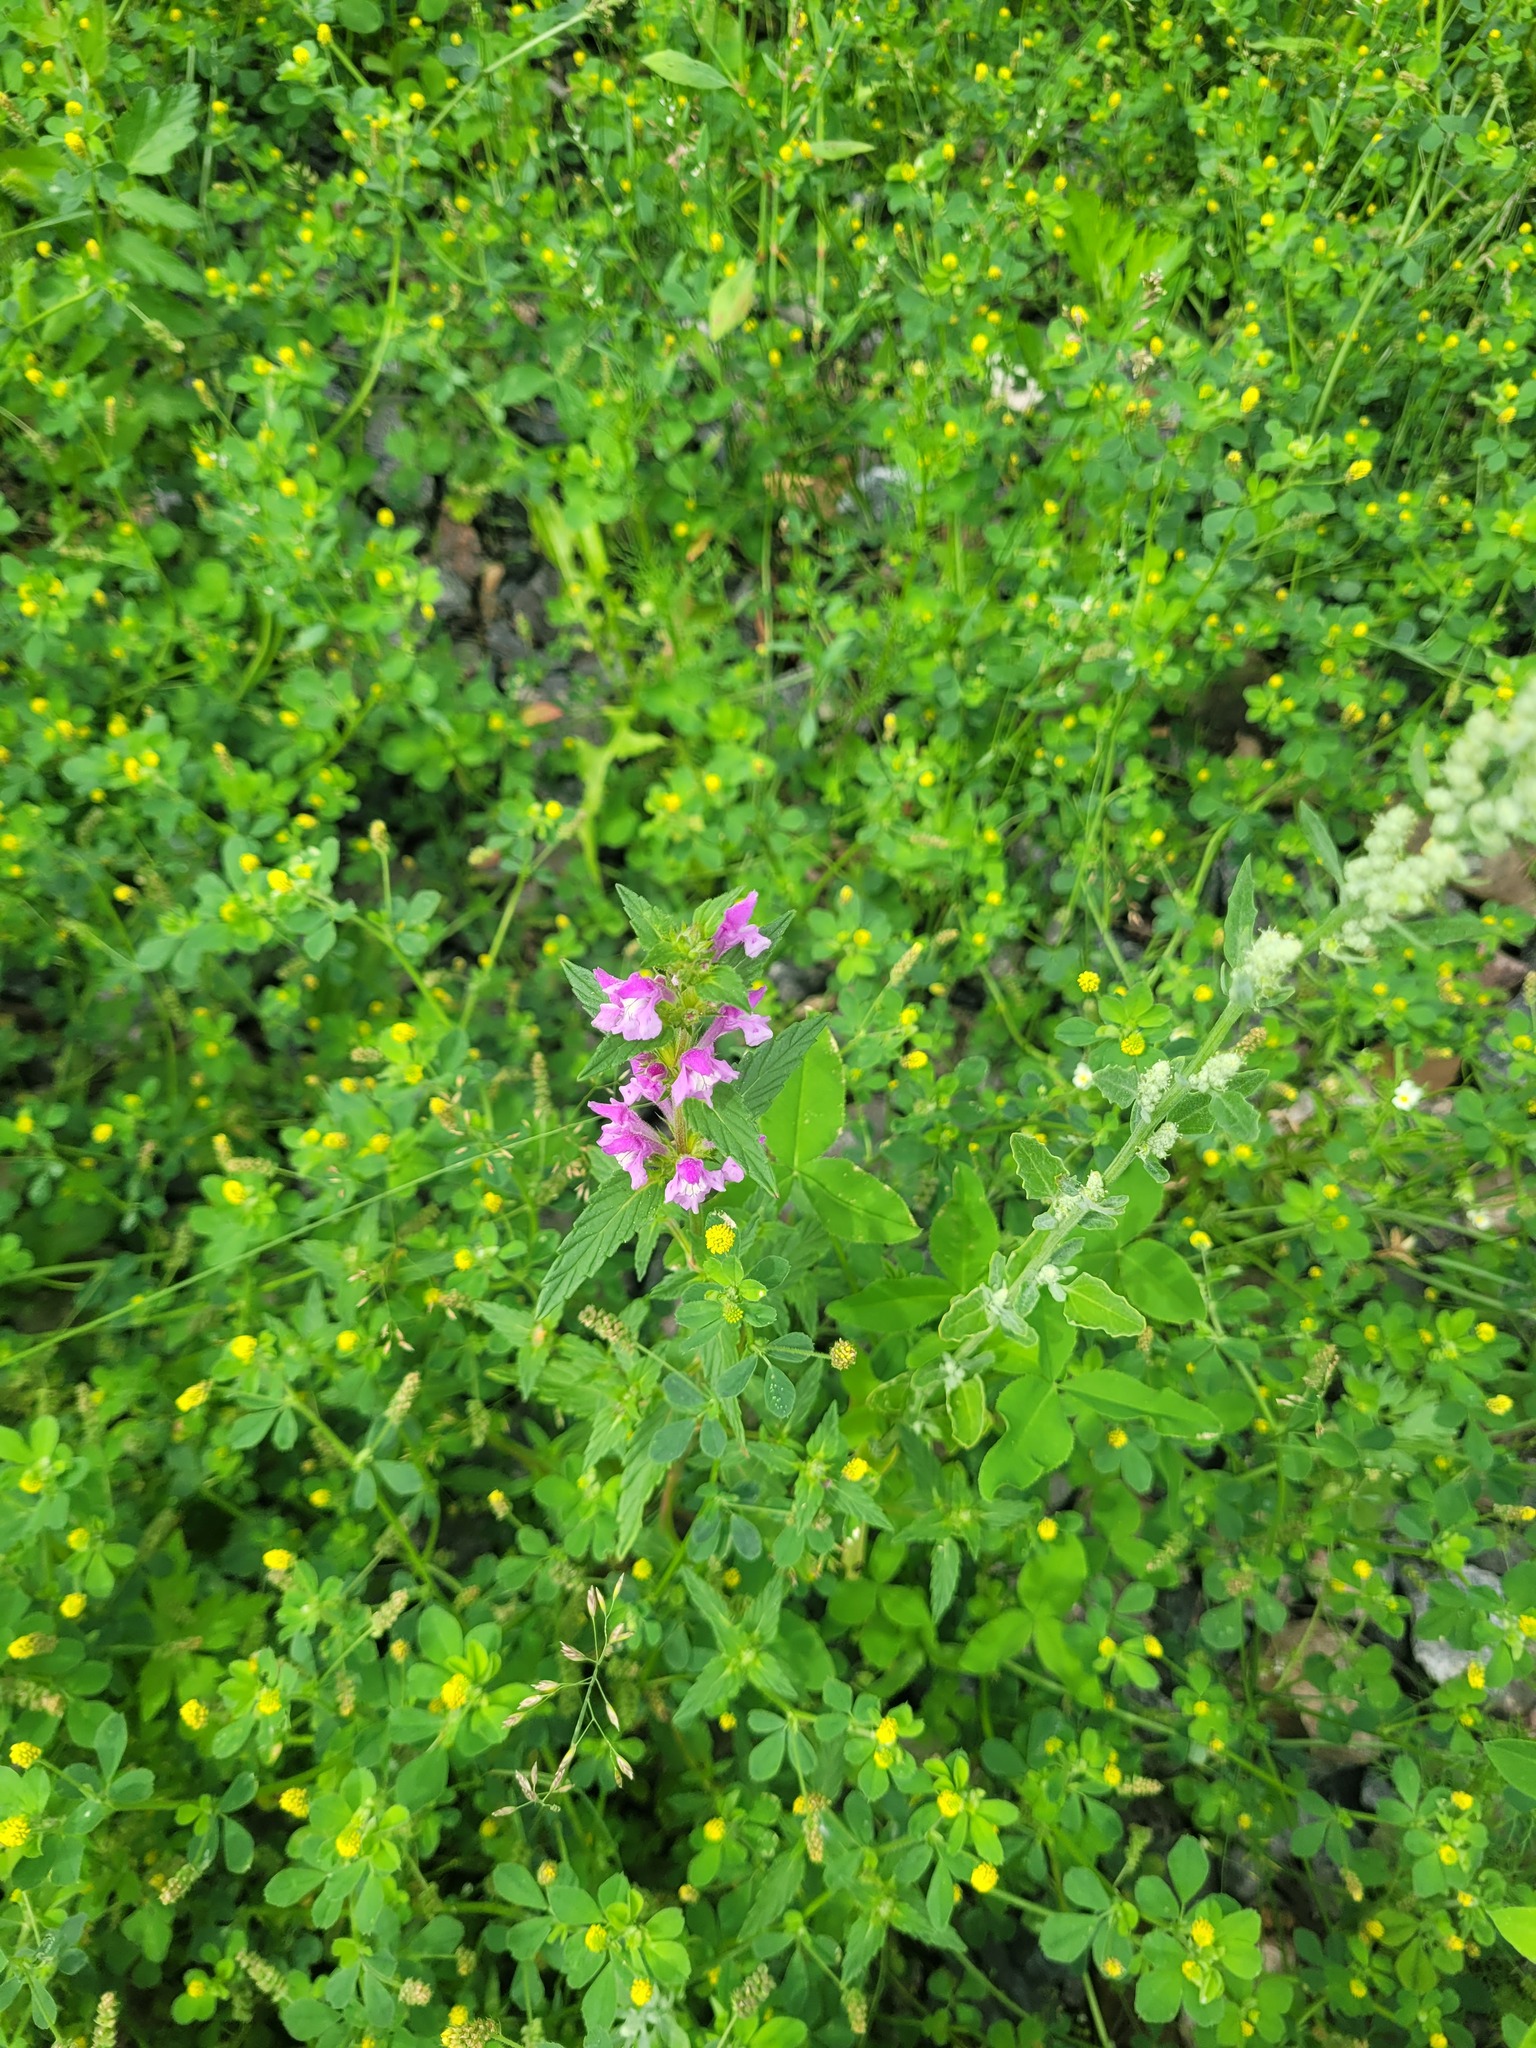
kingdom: Plantae
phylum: Tracheophyta
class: Magnoliopsida
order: Lamiales
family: Lamiaceae
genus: Galeopsis
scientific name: Galeopsis ladanum
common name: Broad-leaved hemp-nettle
